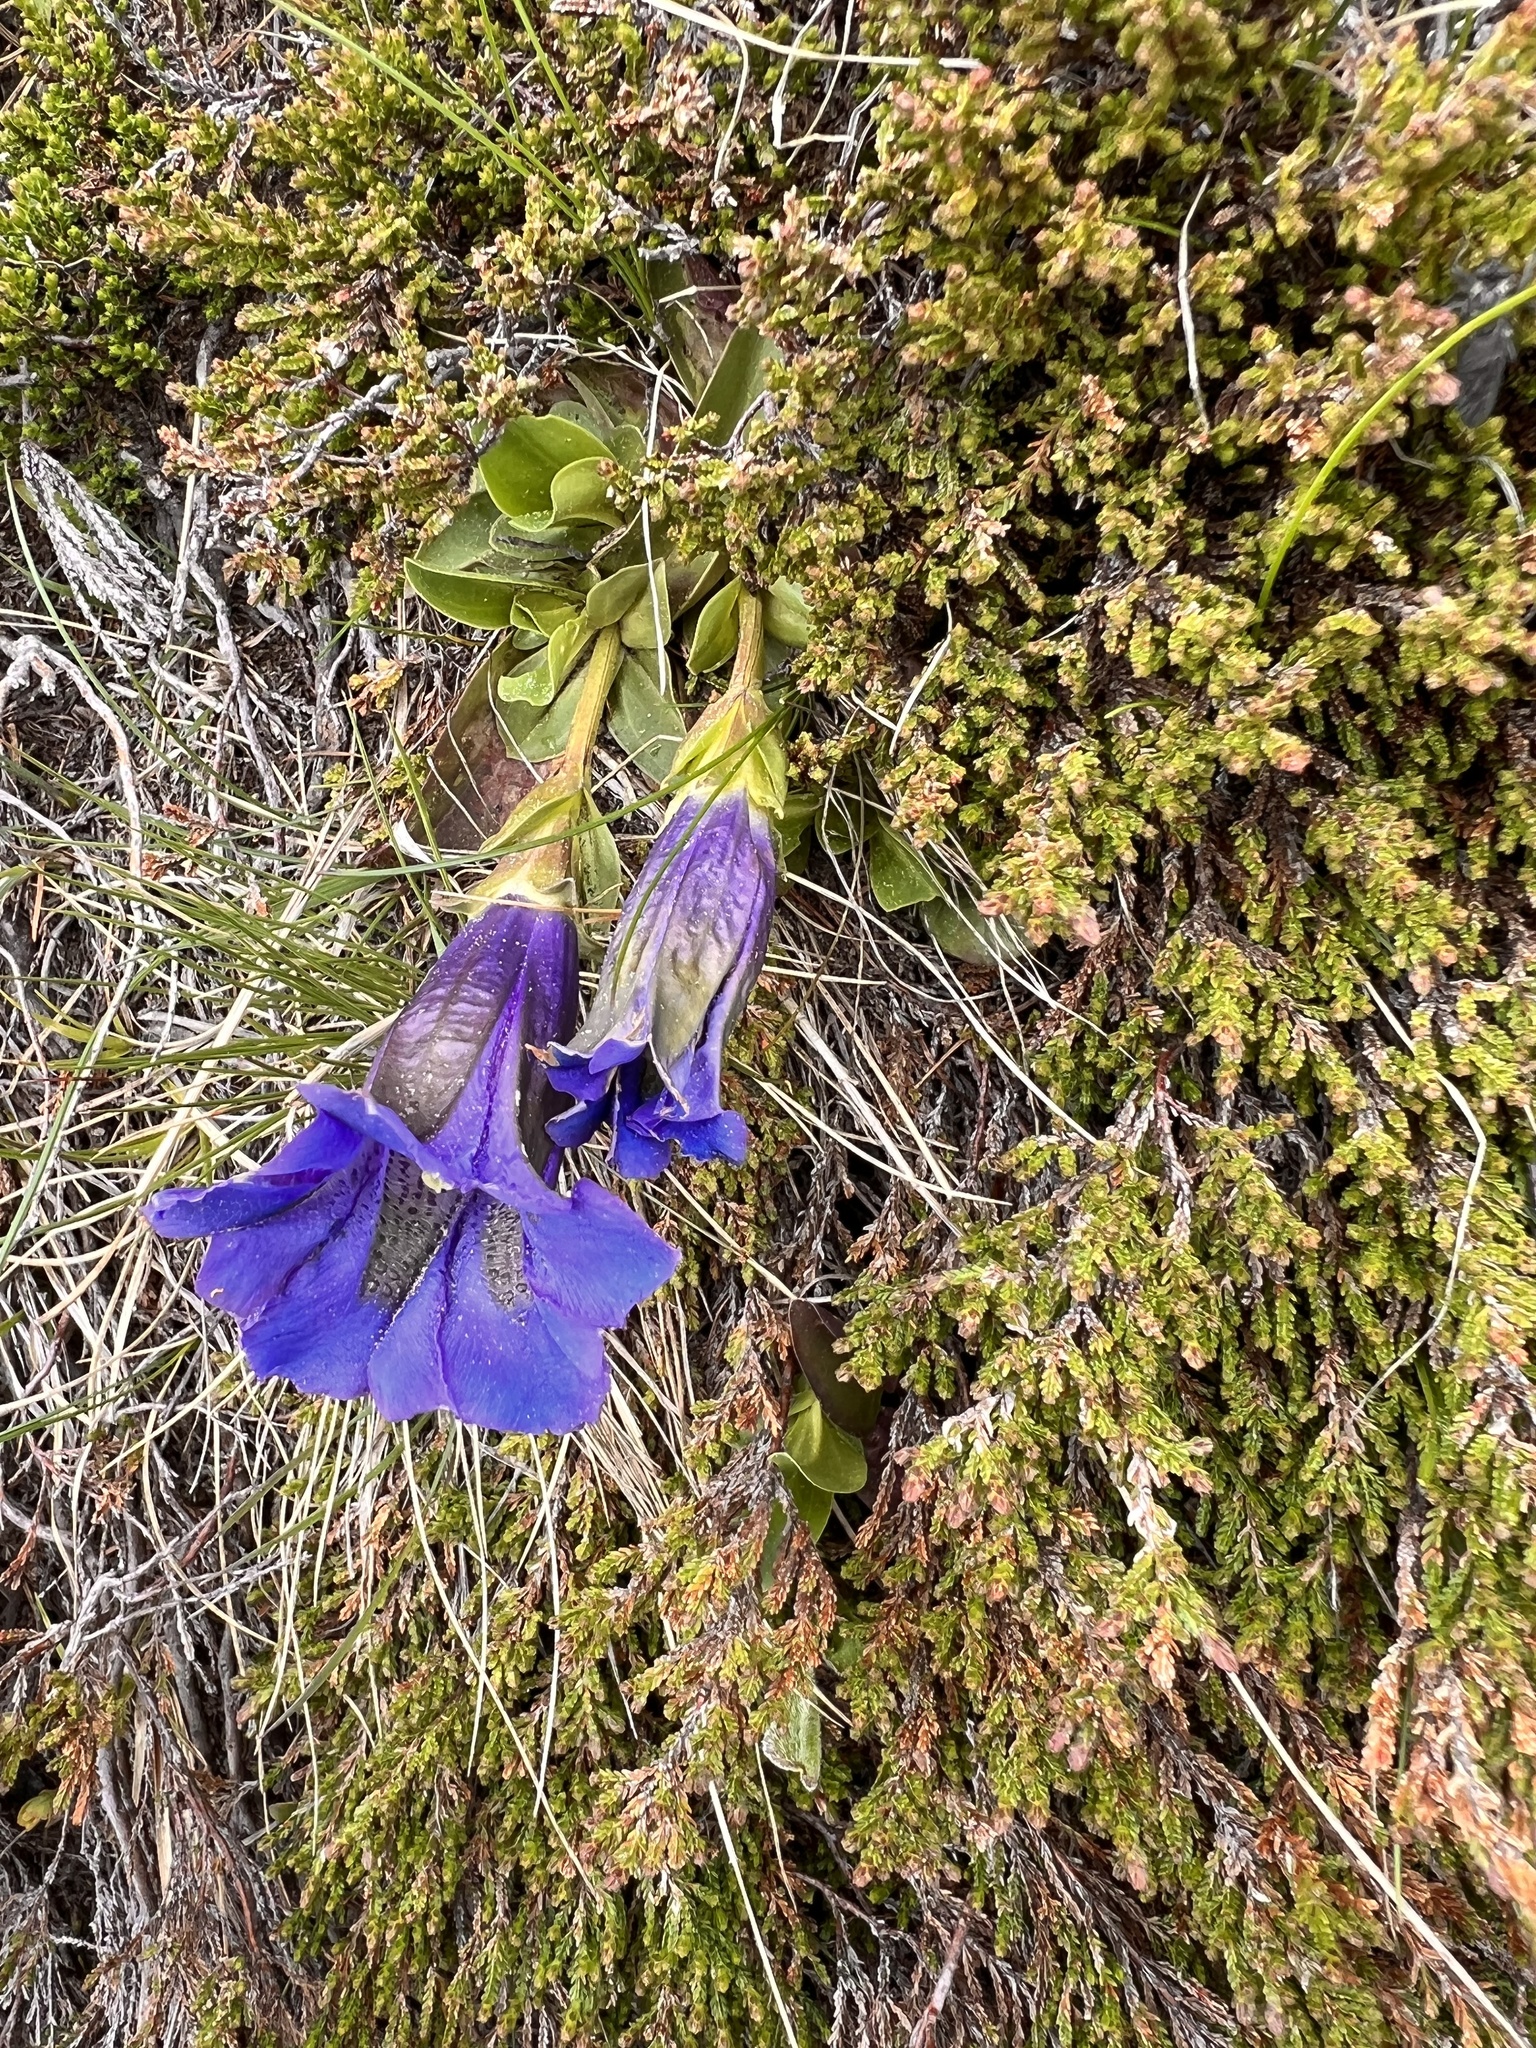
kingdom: Plantae
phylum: Tracheophyta
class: Magnoliopsida
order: Gentianales
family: Gentianaceae
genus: Gentiana
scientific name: Gentiana acaulis
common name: Trumpet gentian
